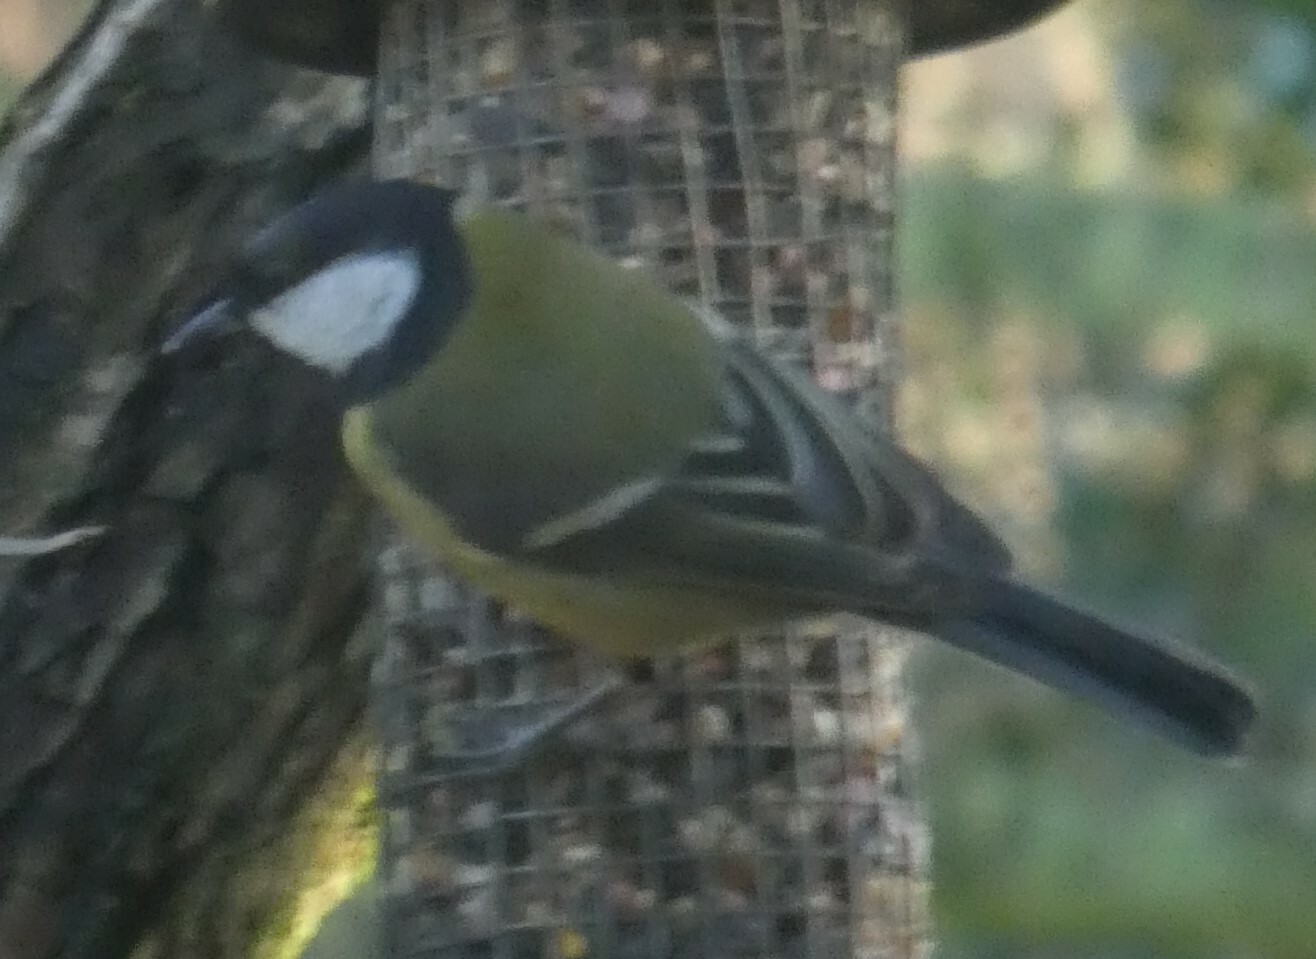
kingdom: Animalia
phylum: Chordata
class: Aves
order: Passeriformes
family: Paridae
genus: Parus
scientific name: Parus major
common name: Great tit
